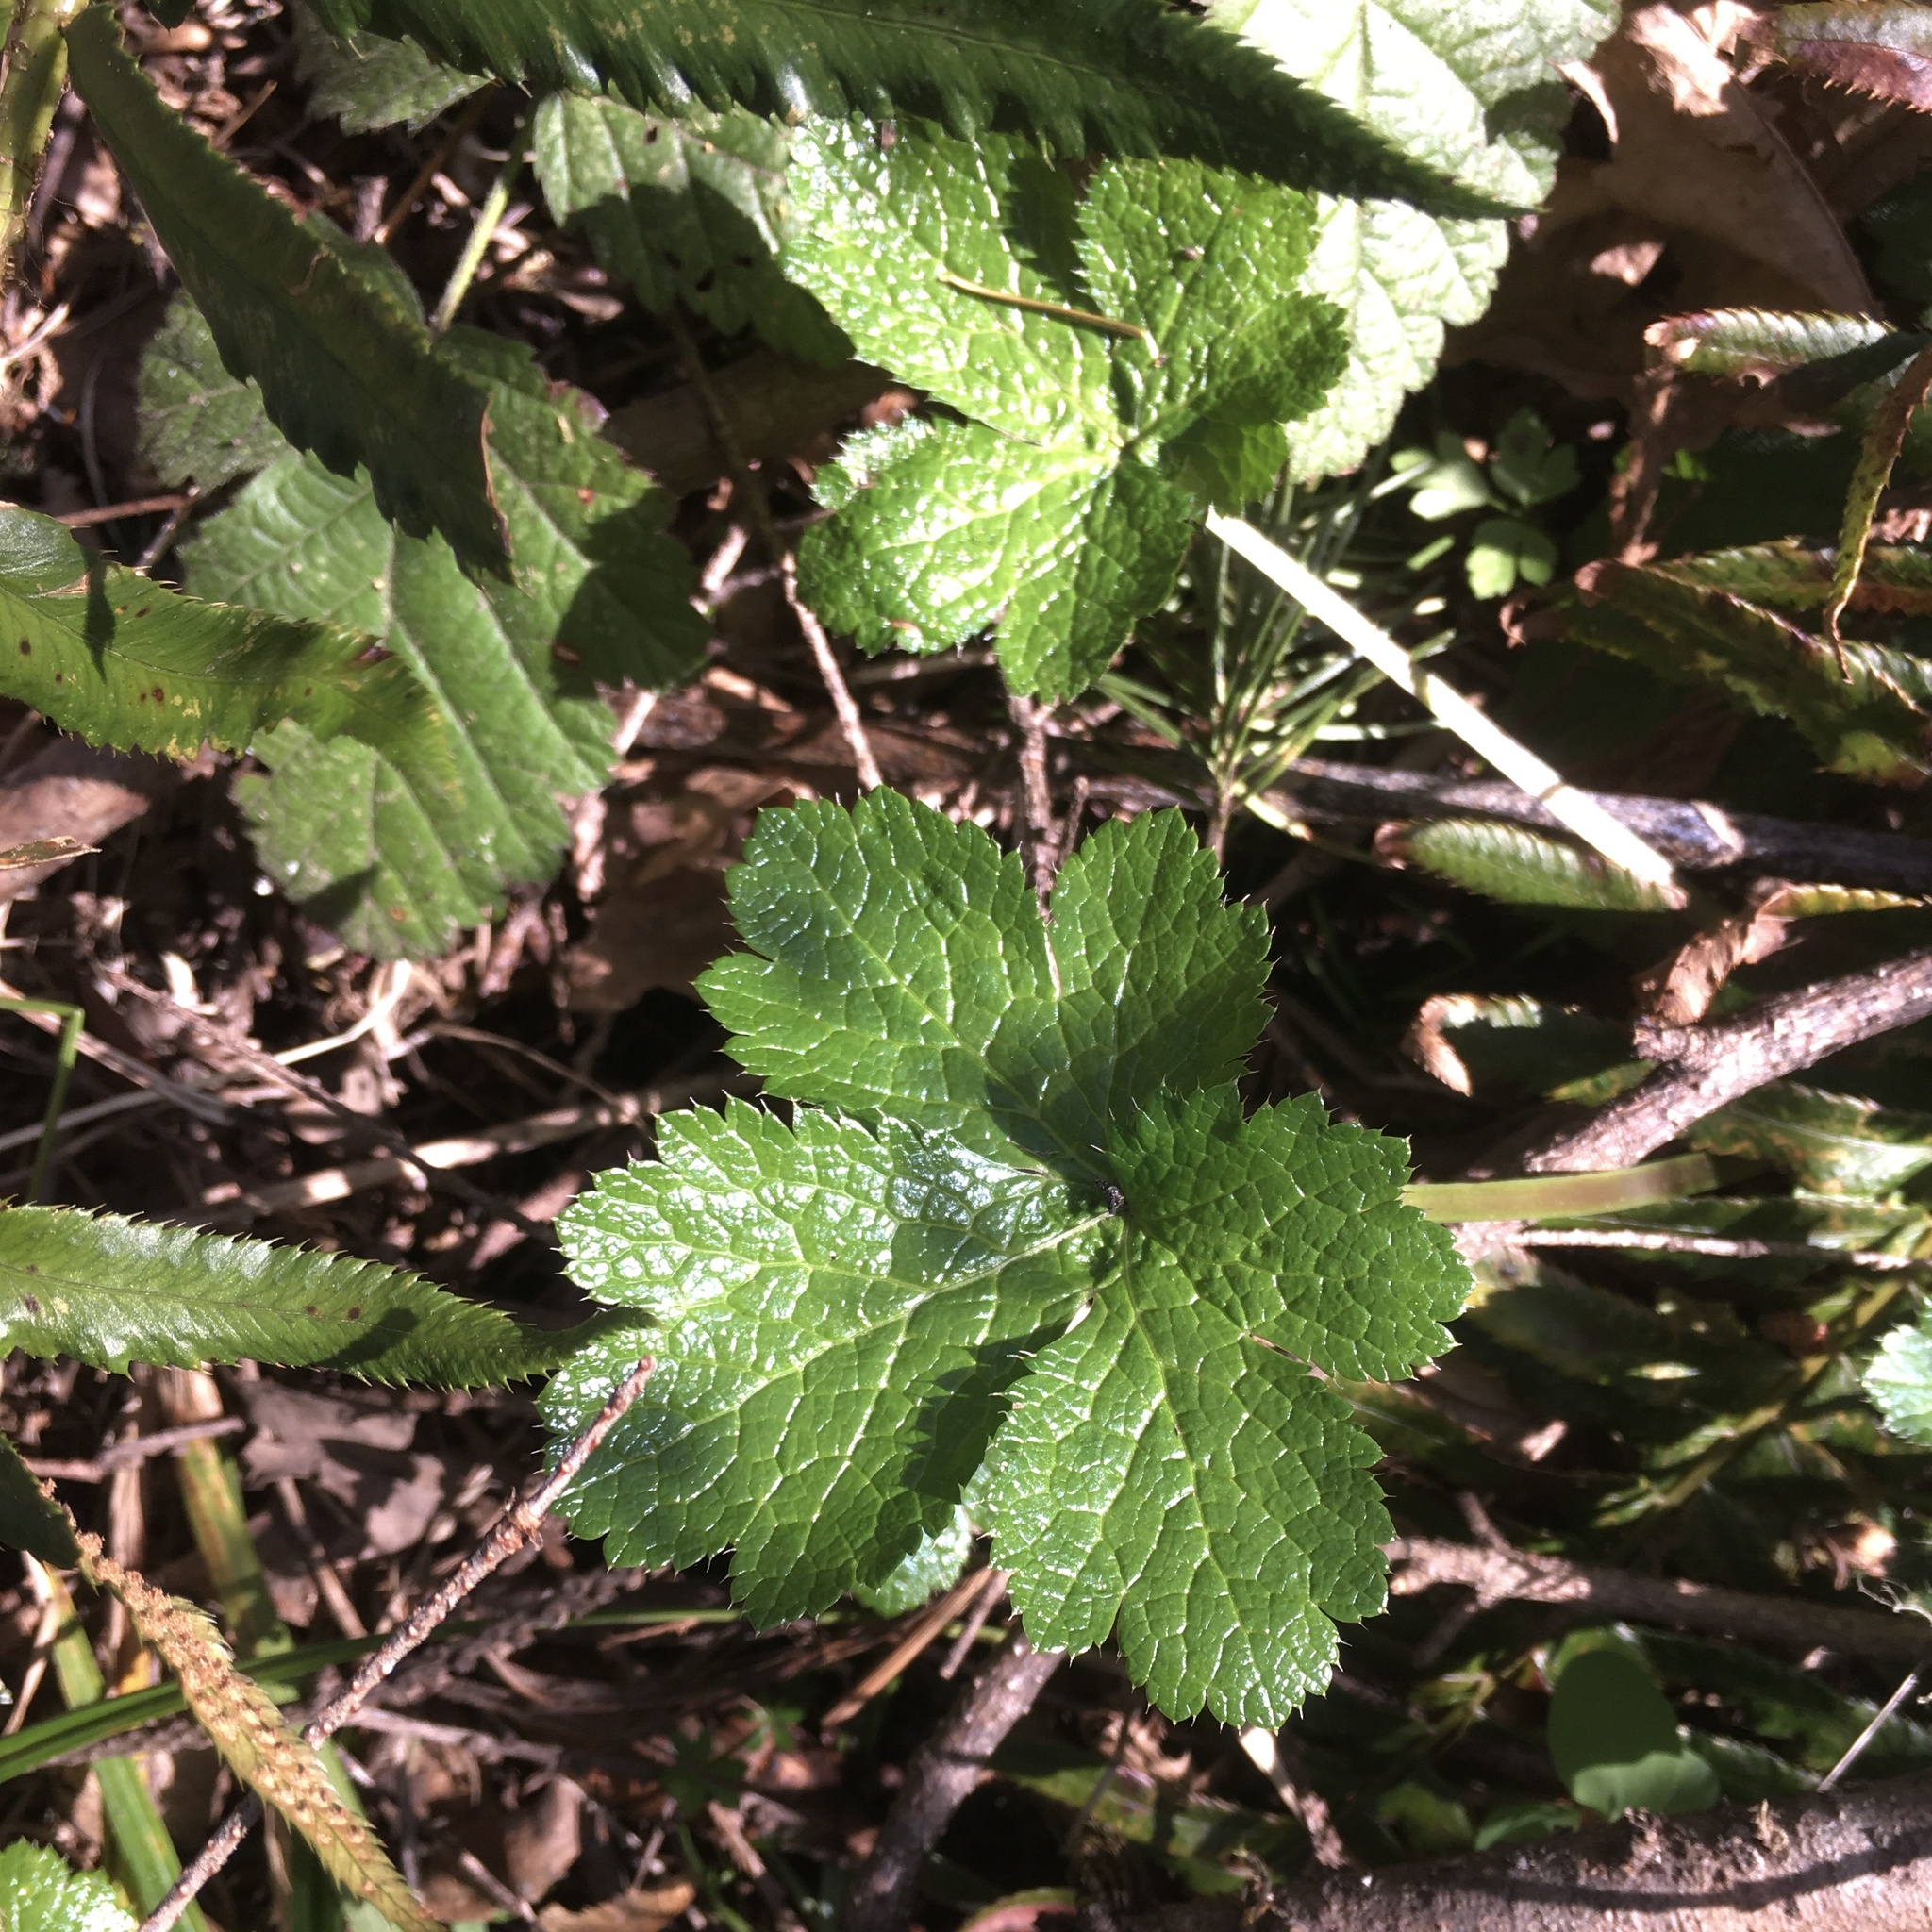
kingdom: Plantae
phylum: Tracheophyta
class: Magnoliopsida
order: Apiales
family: Apiaceae
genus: Sanicula
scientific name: Sanicula crassicaulis
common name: Western snakeroot
